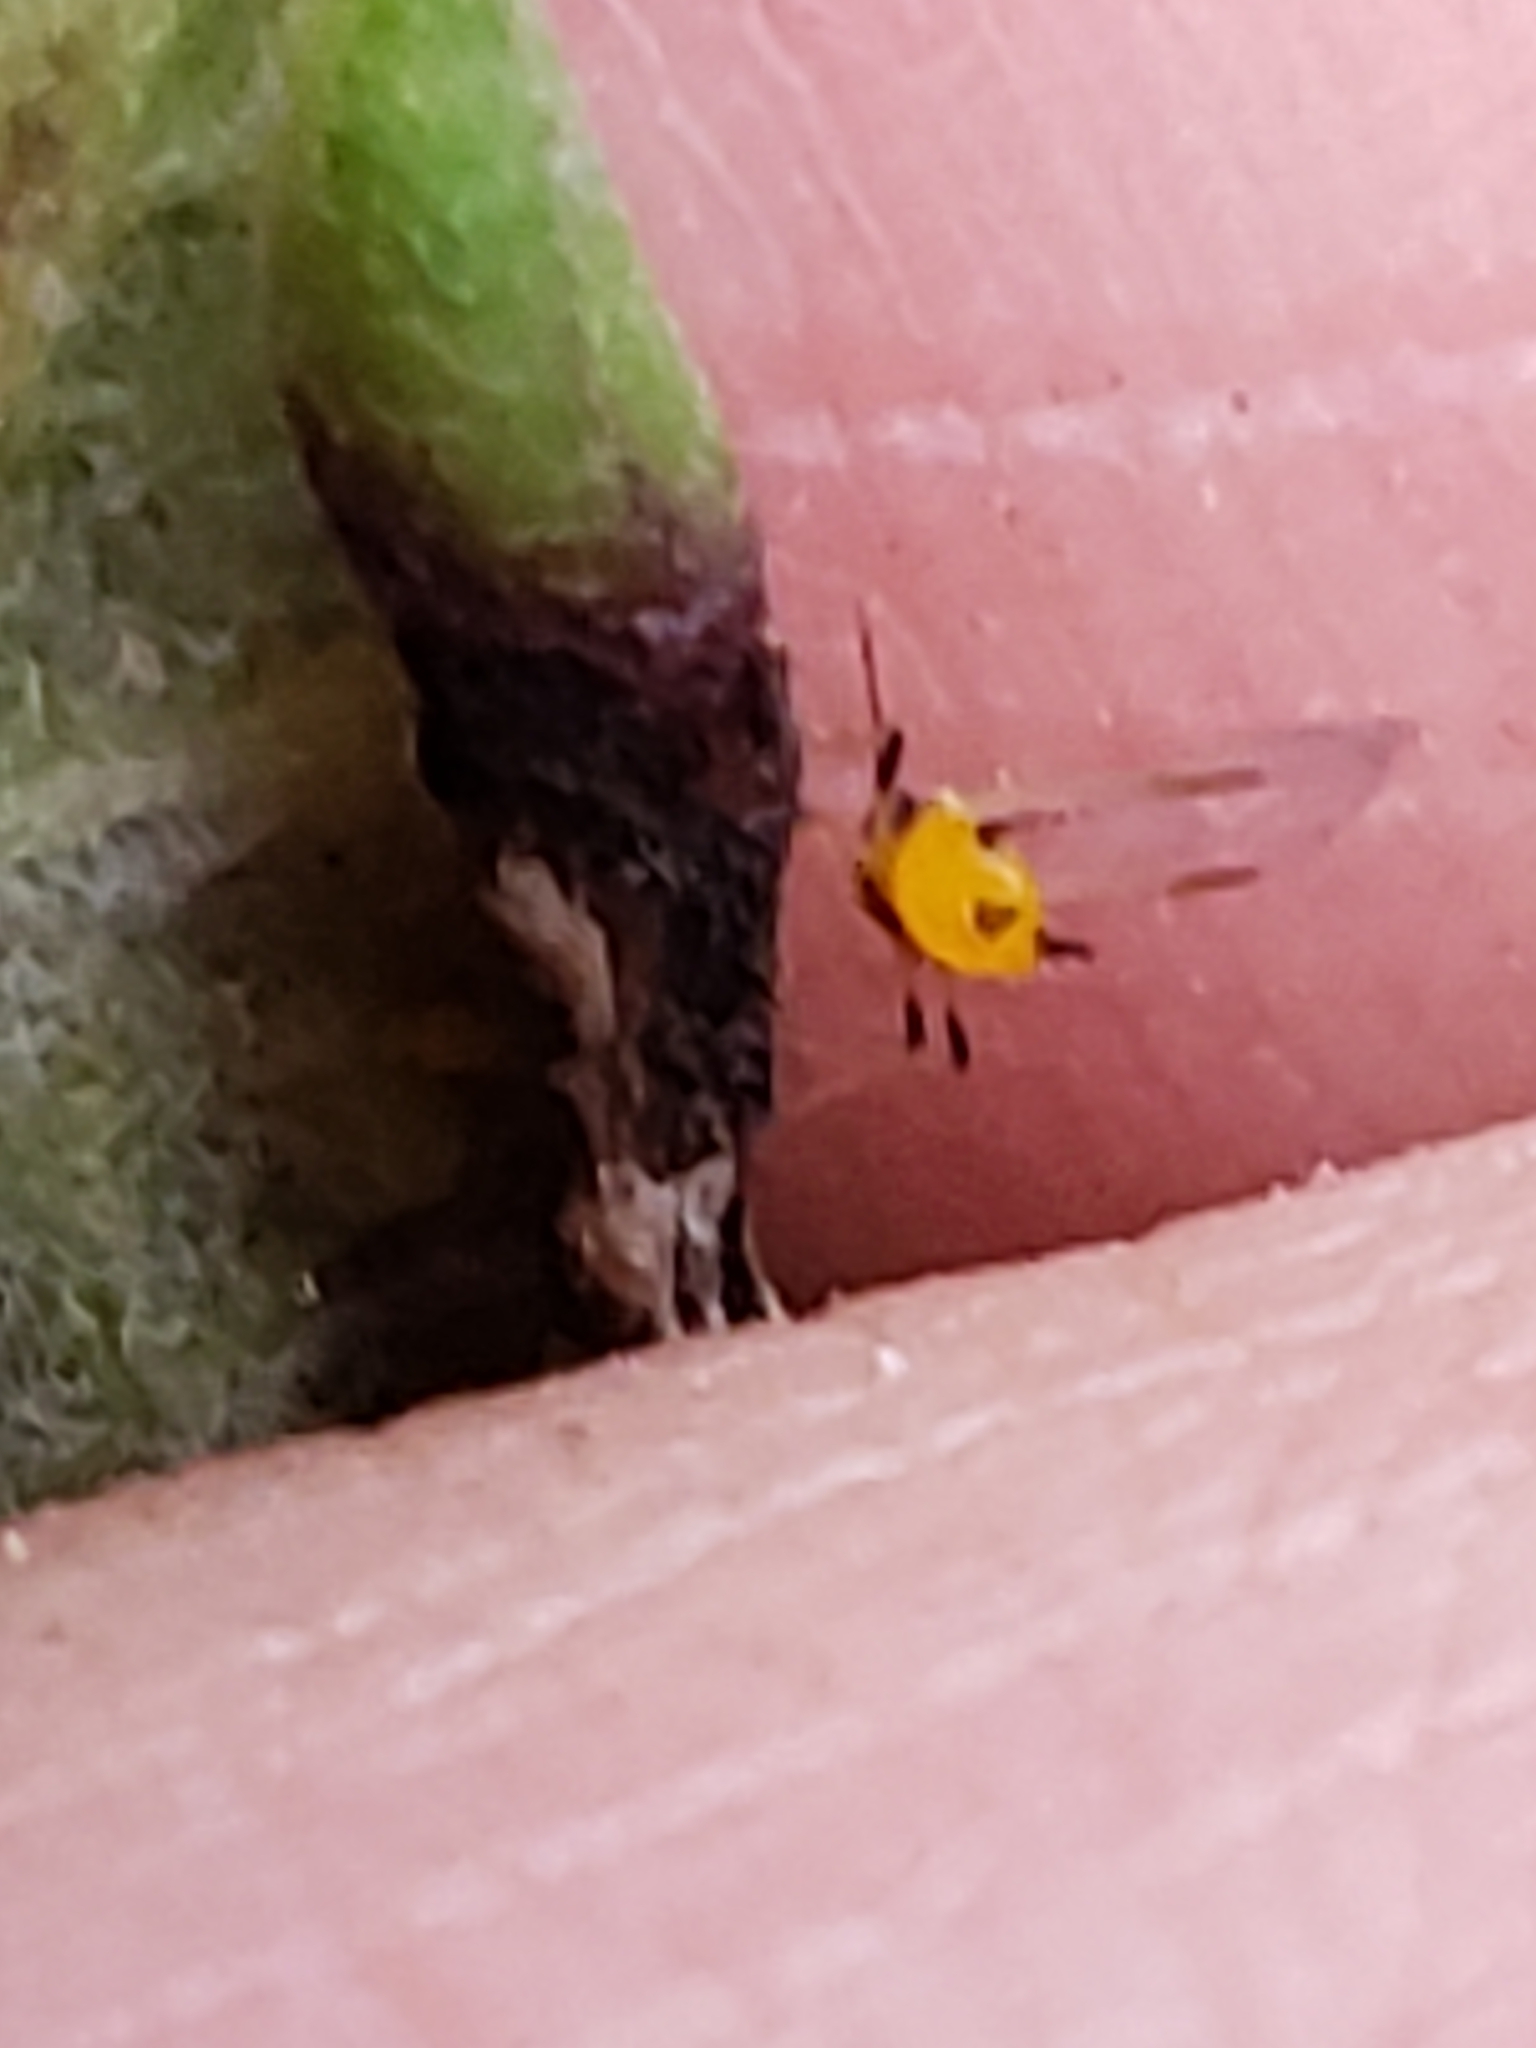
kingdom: Animalia
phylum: Arthropoda
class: Insecta
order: Hemiptera
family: Aphididae
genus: Aphis
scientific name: Aphis nerii
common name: Oleander aphid
